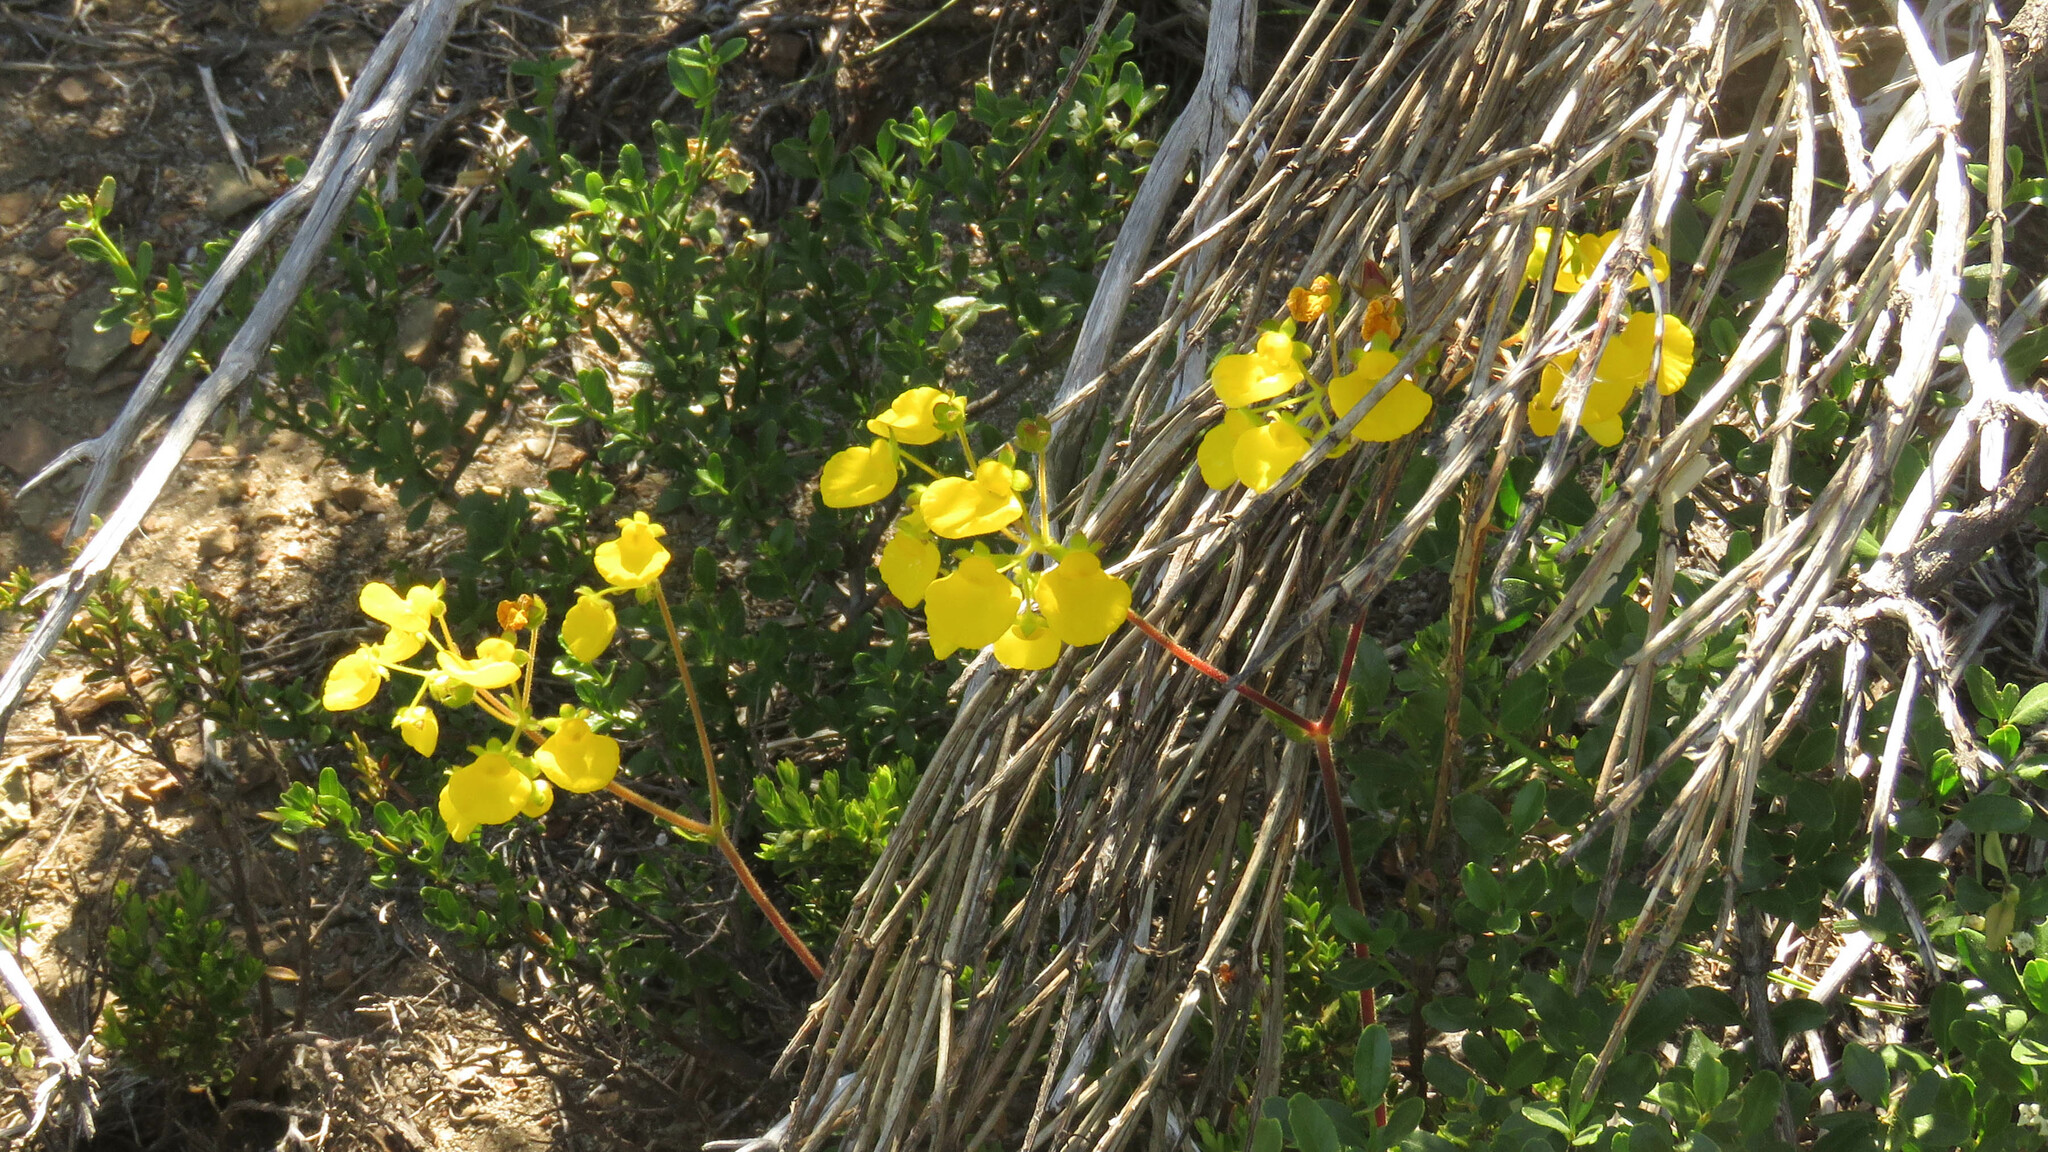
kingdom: Plantae
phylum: Tracheophyta
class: Magnoliopsida
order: Lamiales
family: Calceolariaceae
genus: Calceolaria
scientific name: Calceolaria valdiviana
